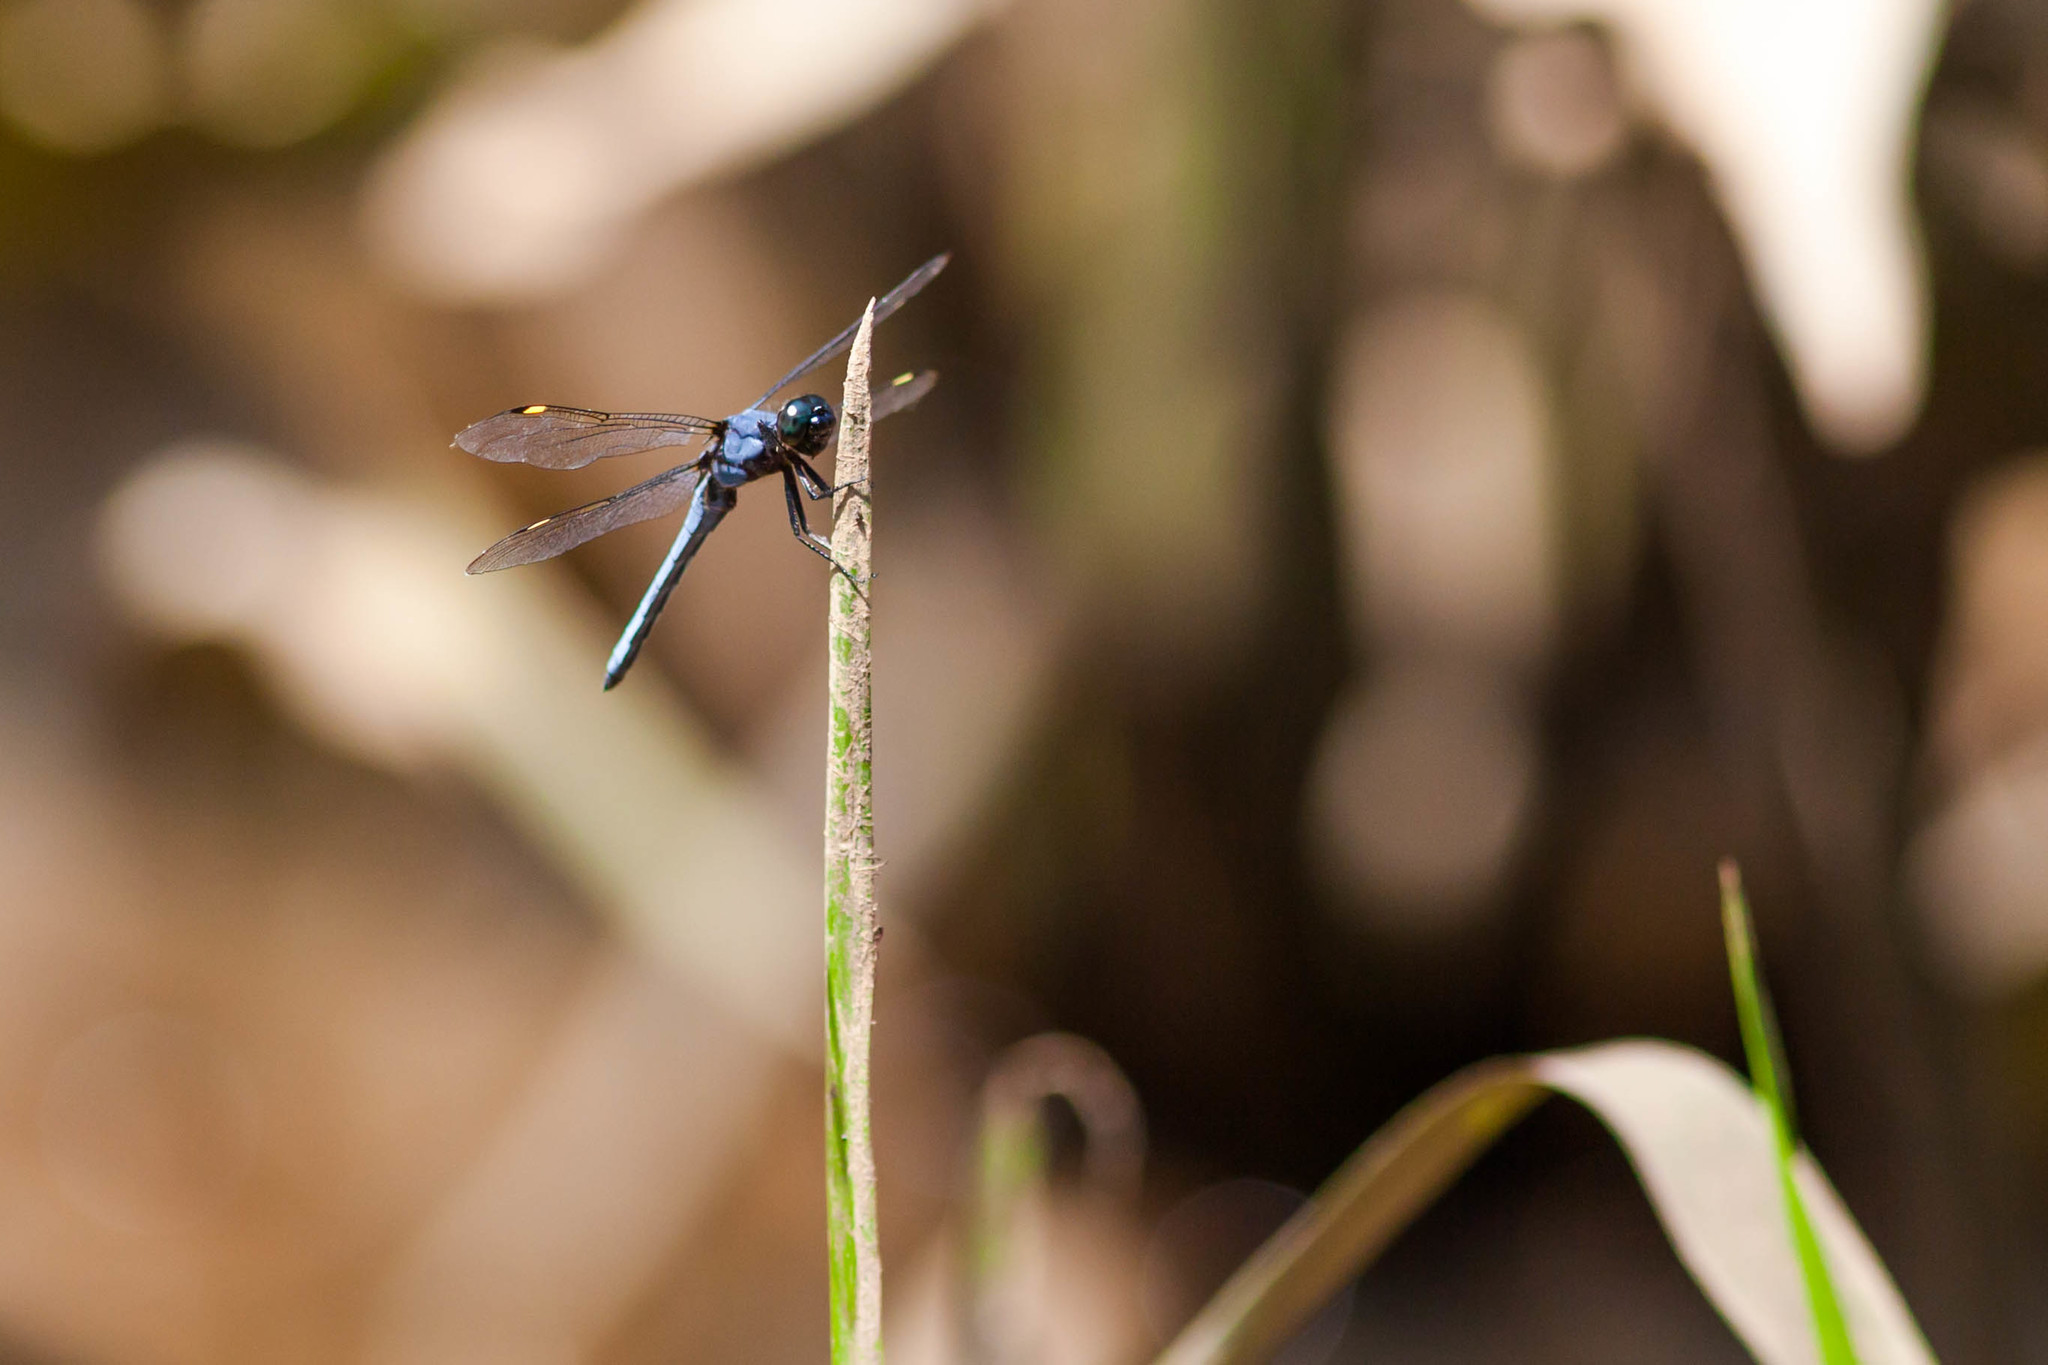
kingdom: Animalia
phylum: Arthropoda
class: Insecta
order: Odonata
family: Libellulidae
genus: Libellula
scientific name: Libellula cyanea
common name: Spangled skimmer
